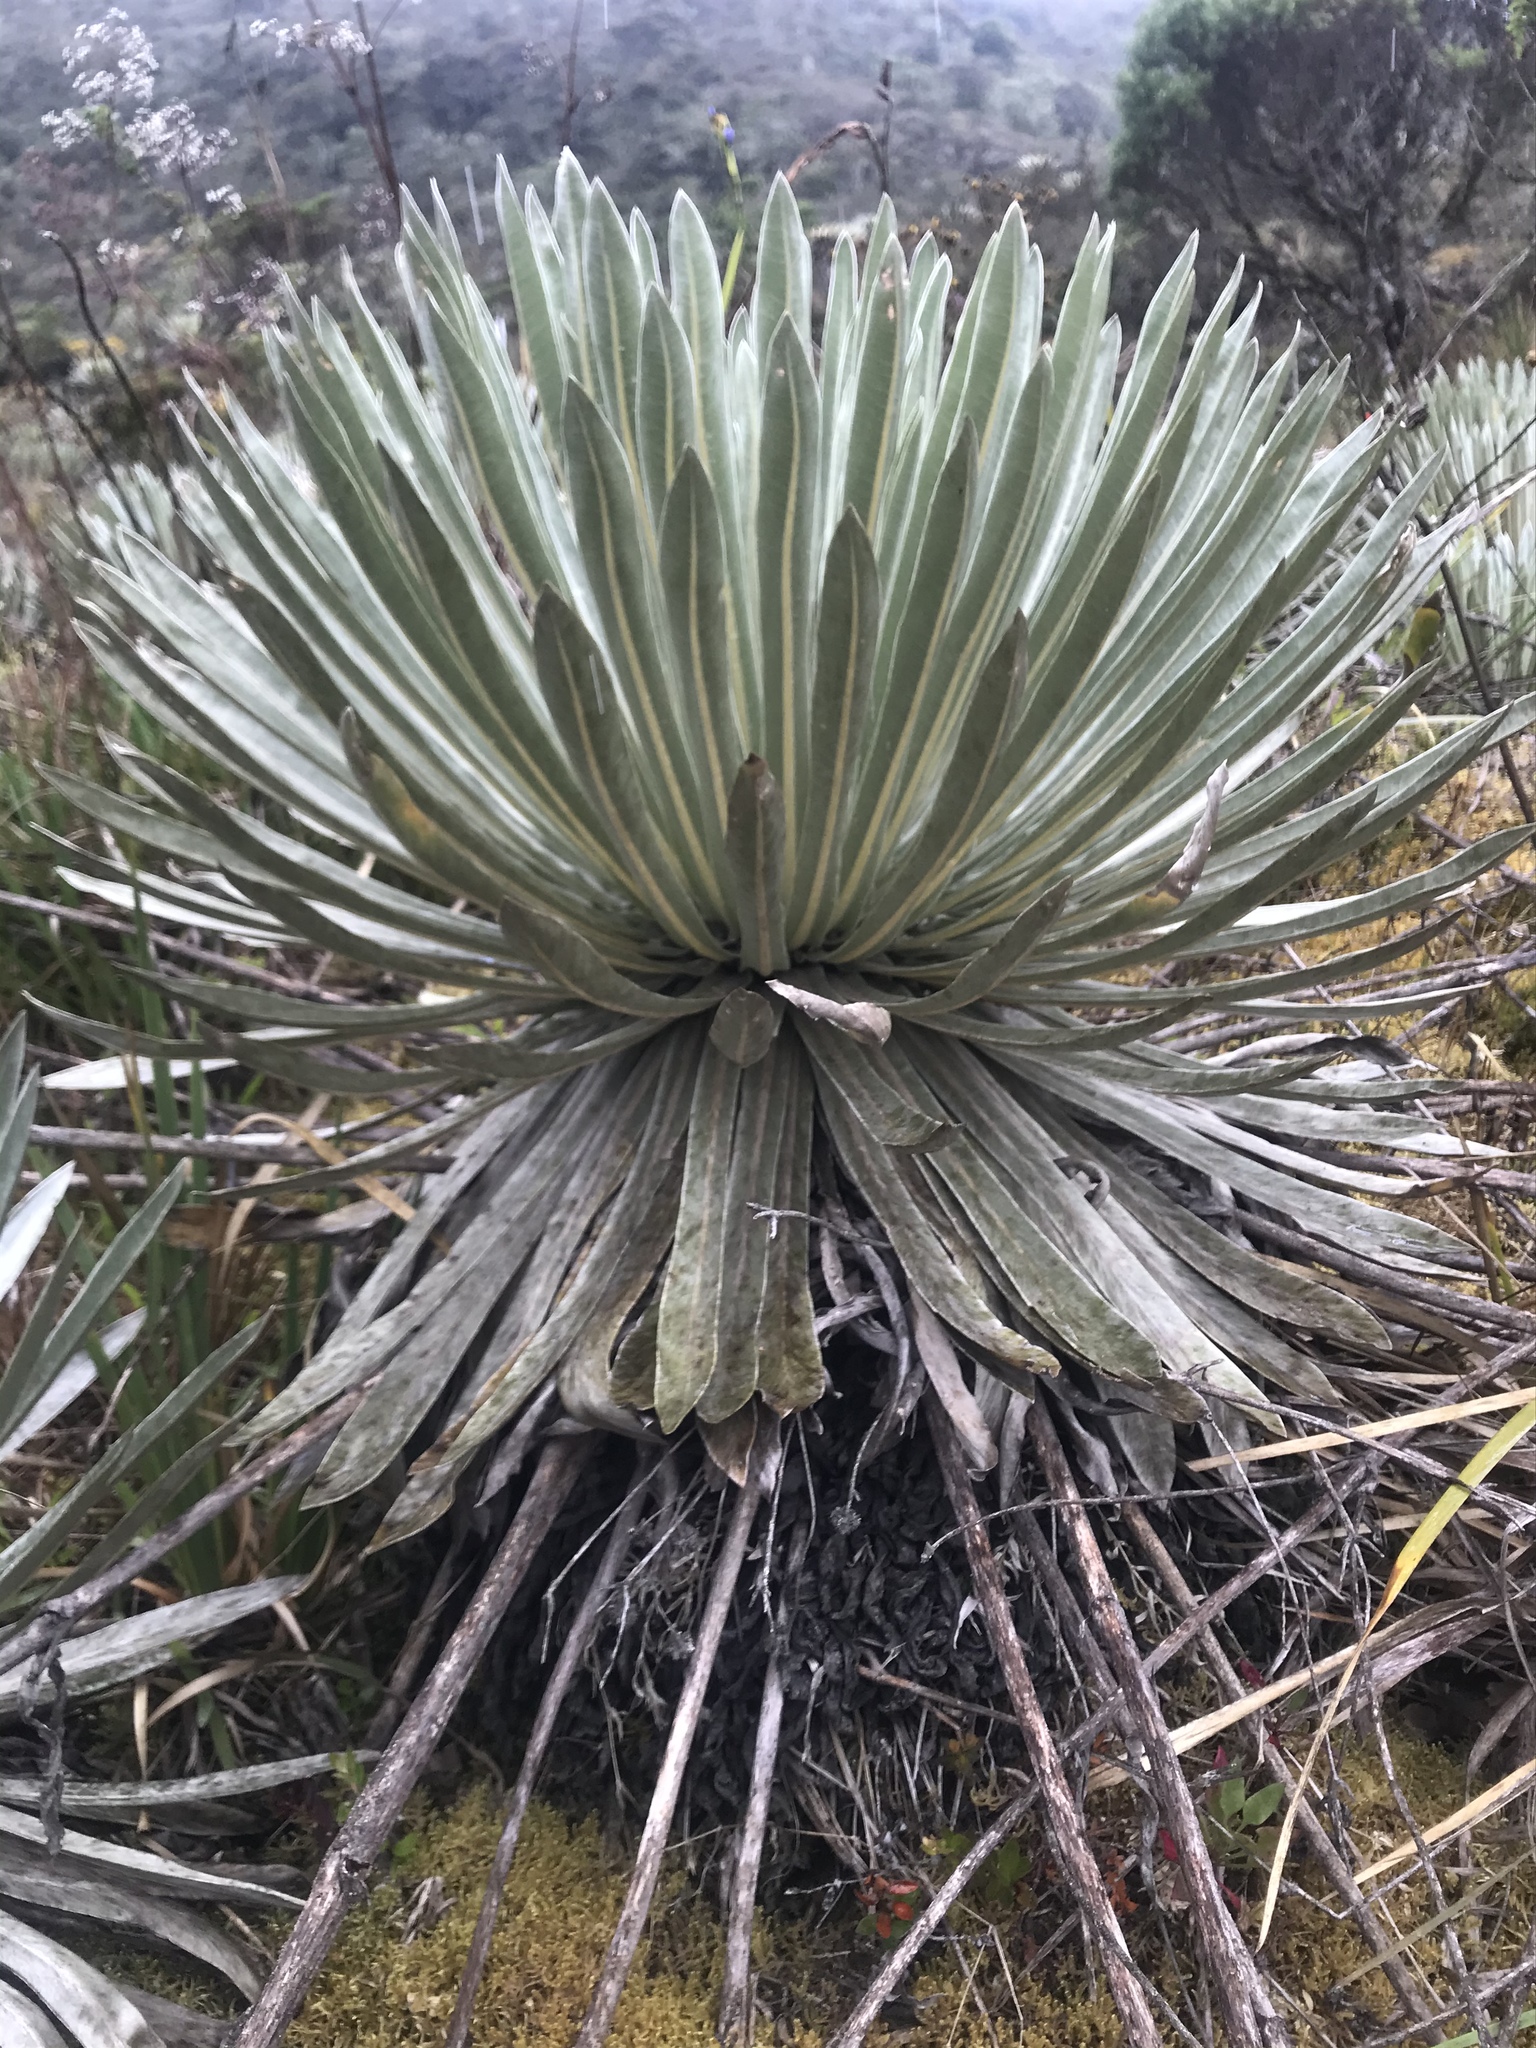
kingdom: Plantae
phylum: Tracheophyta
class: Magnoliopsida
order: Asterales
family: Asteraceae
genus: Espeletia
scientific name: Espeletia argentea
